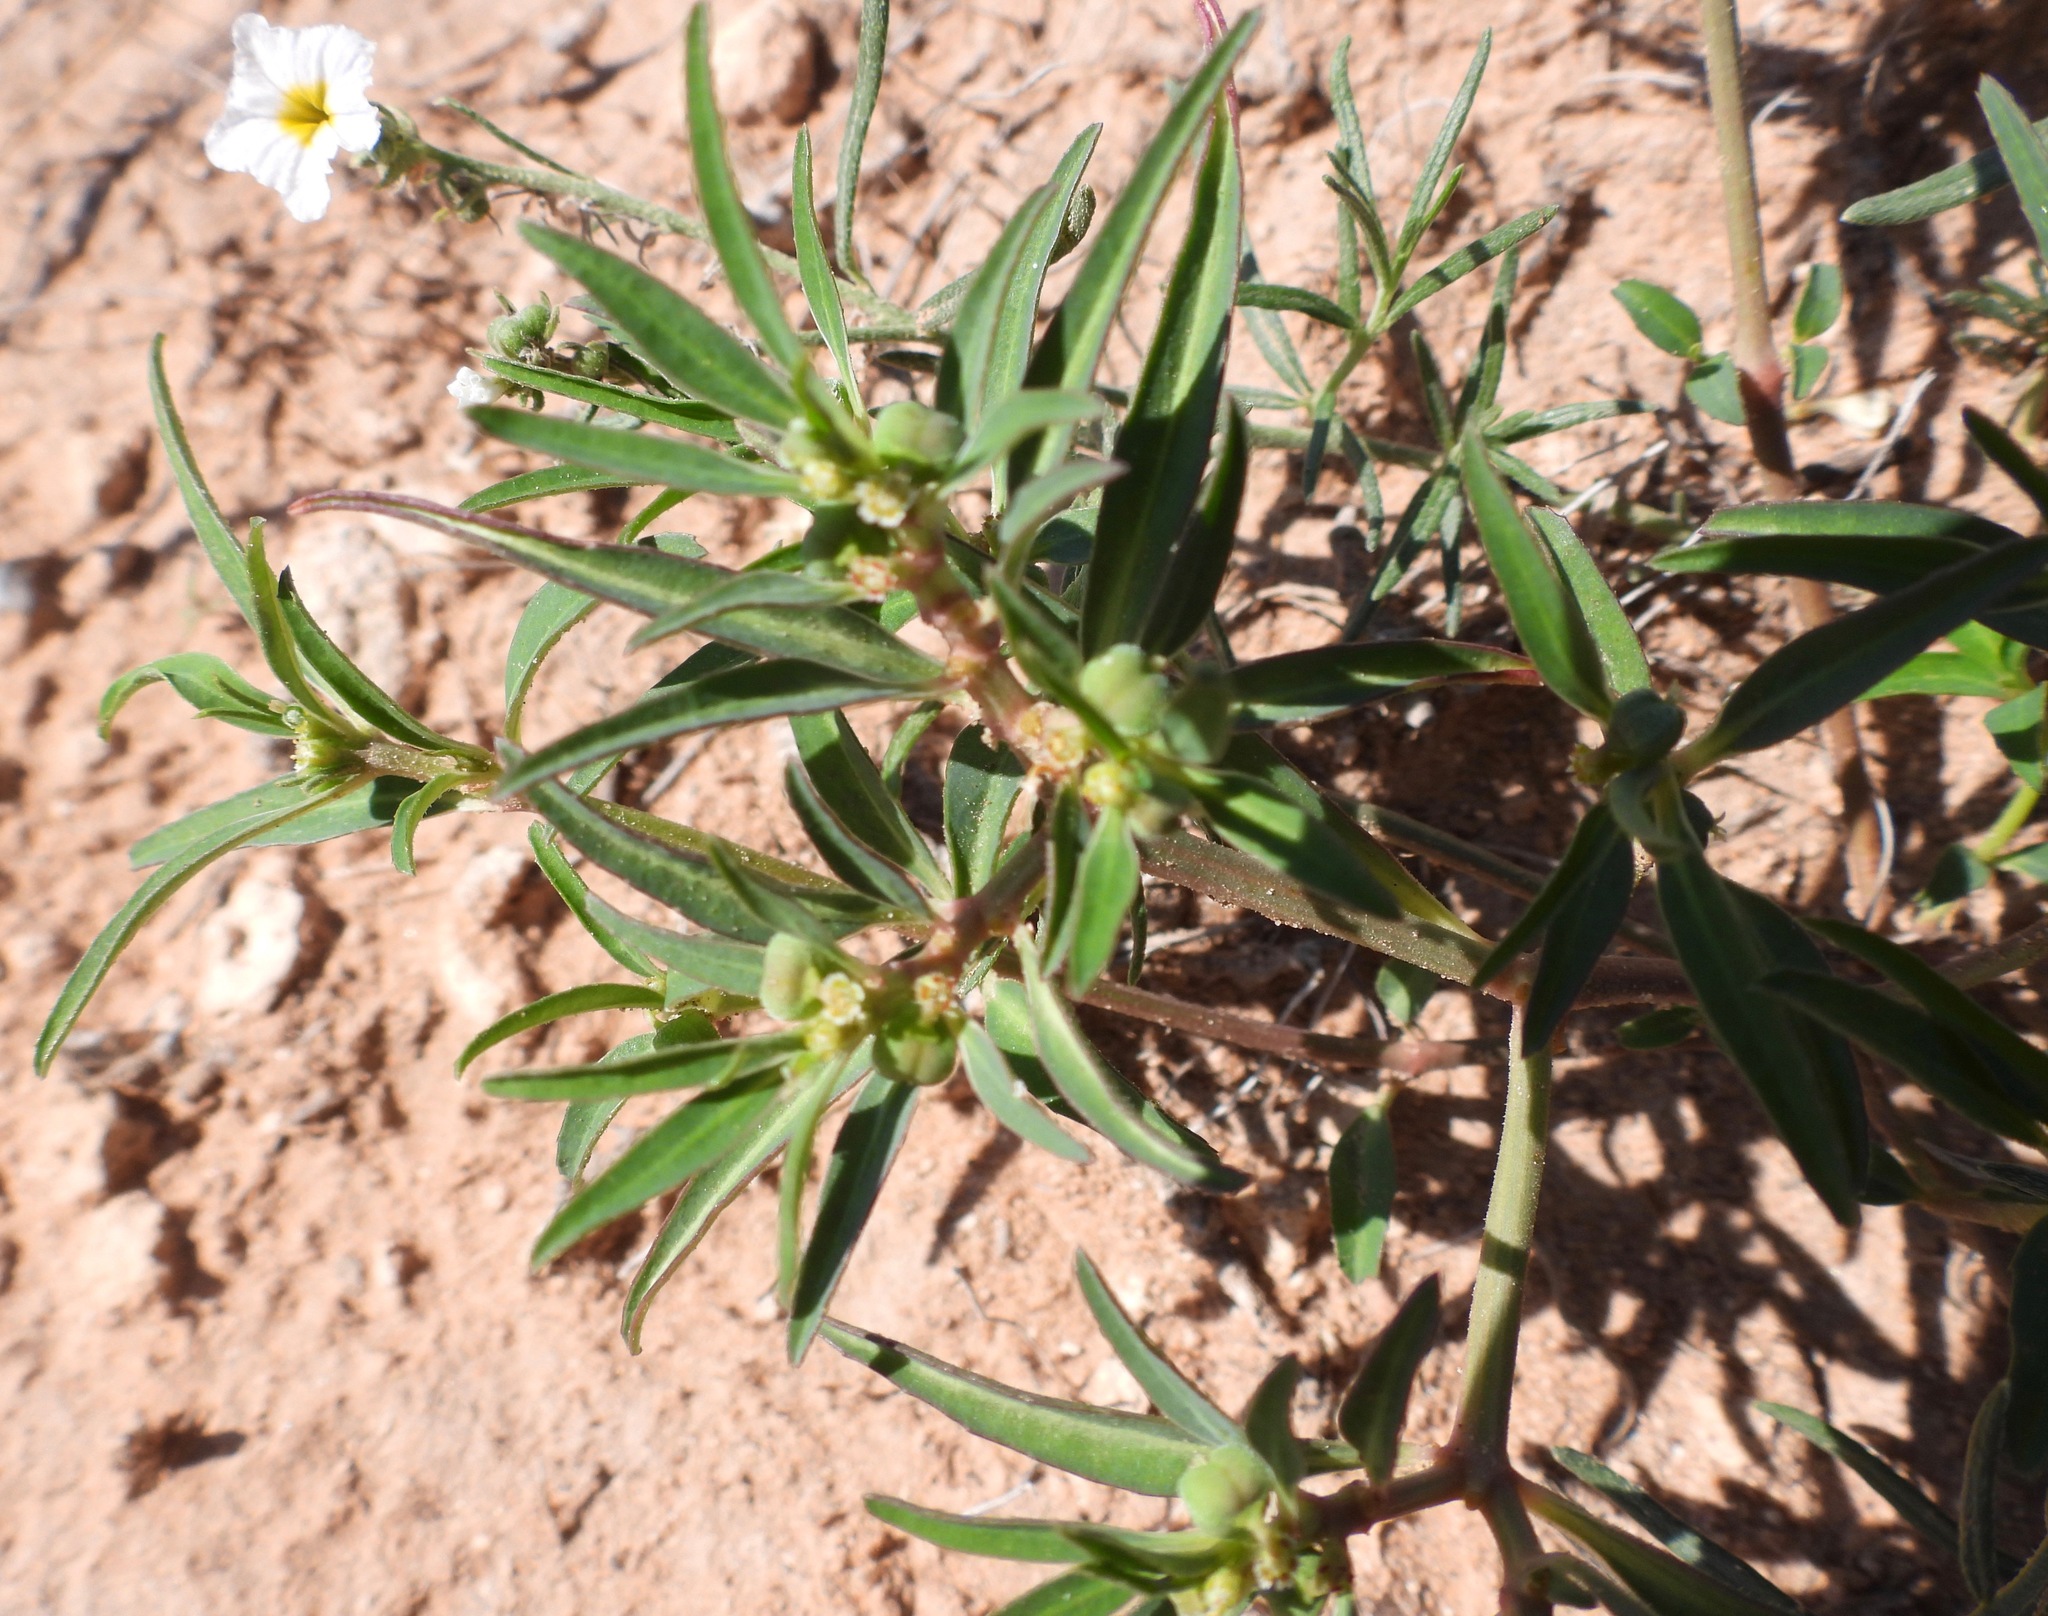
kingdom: Plantae
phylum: Tracheophyta
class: Magnoliopsida
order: Malpighiales
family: Euphorbiaceae
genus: Euphorbia
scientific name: Euphorbia exstipulata
